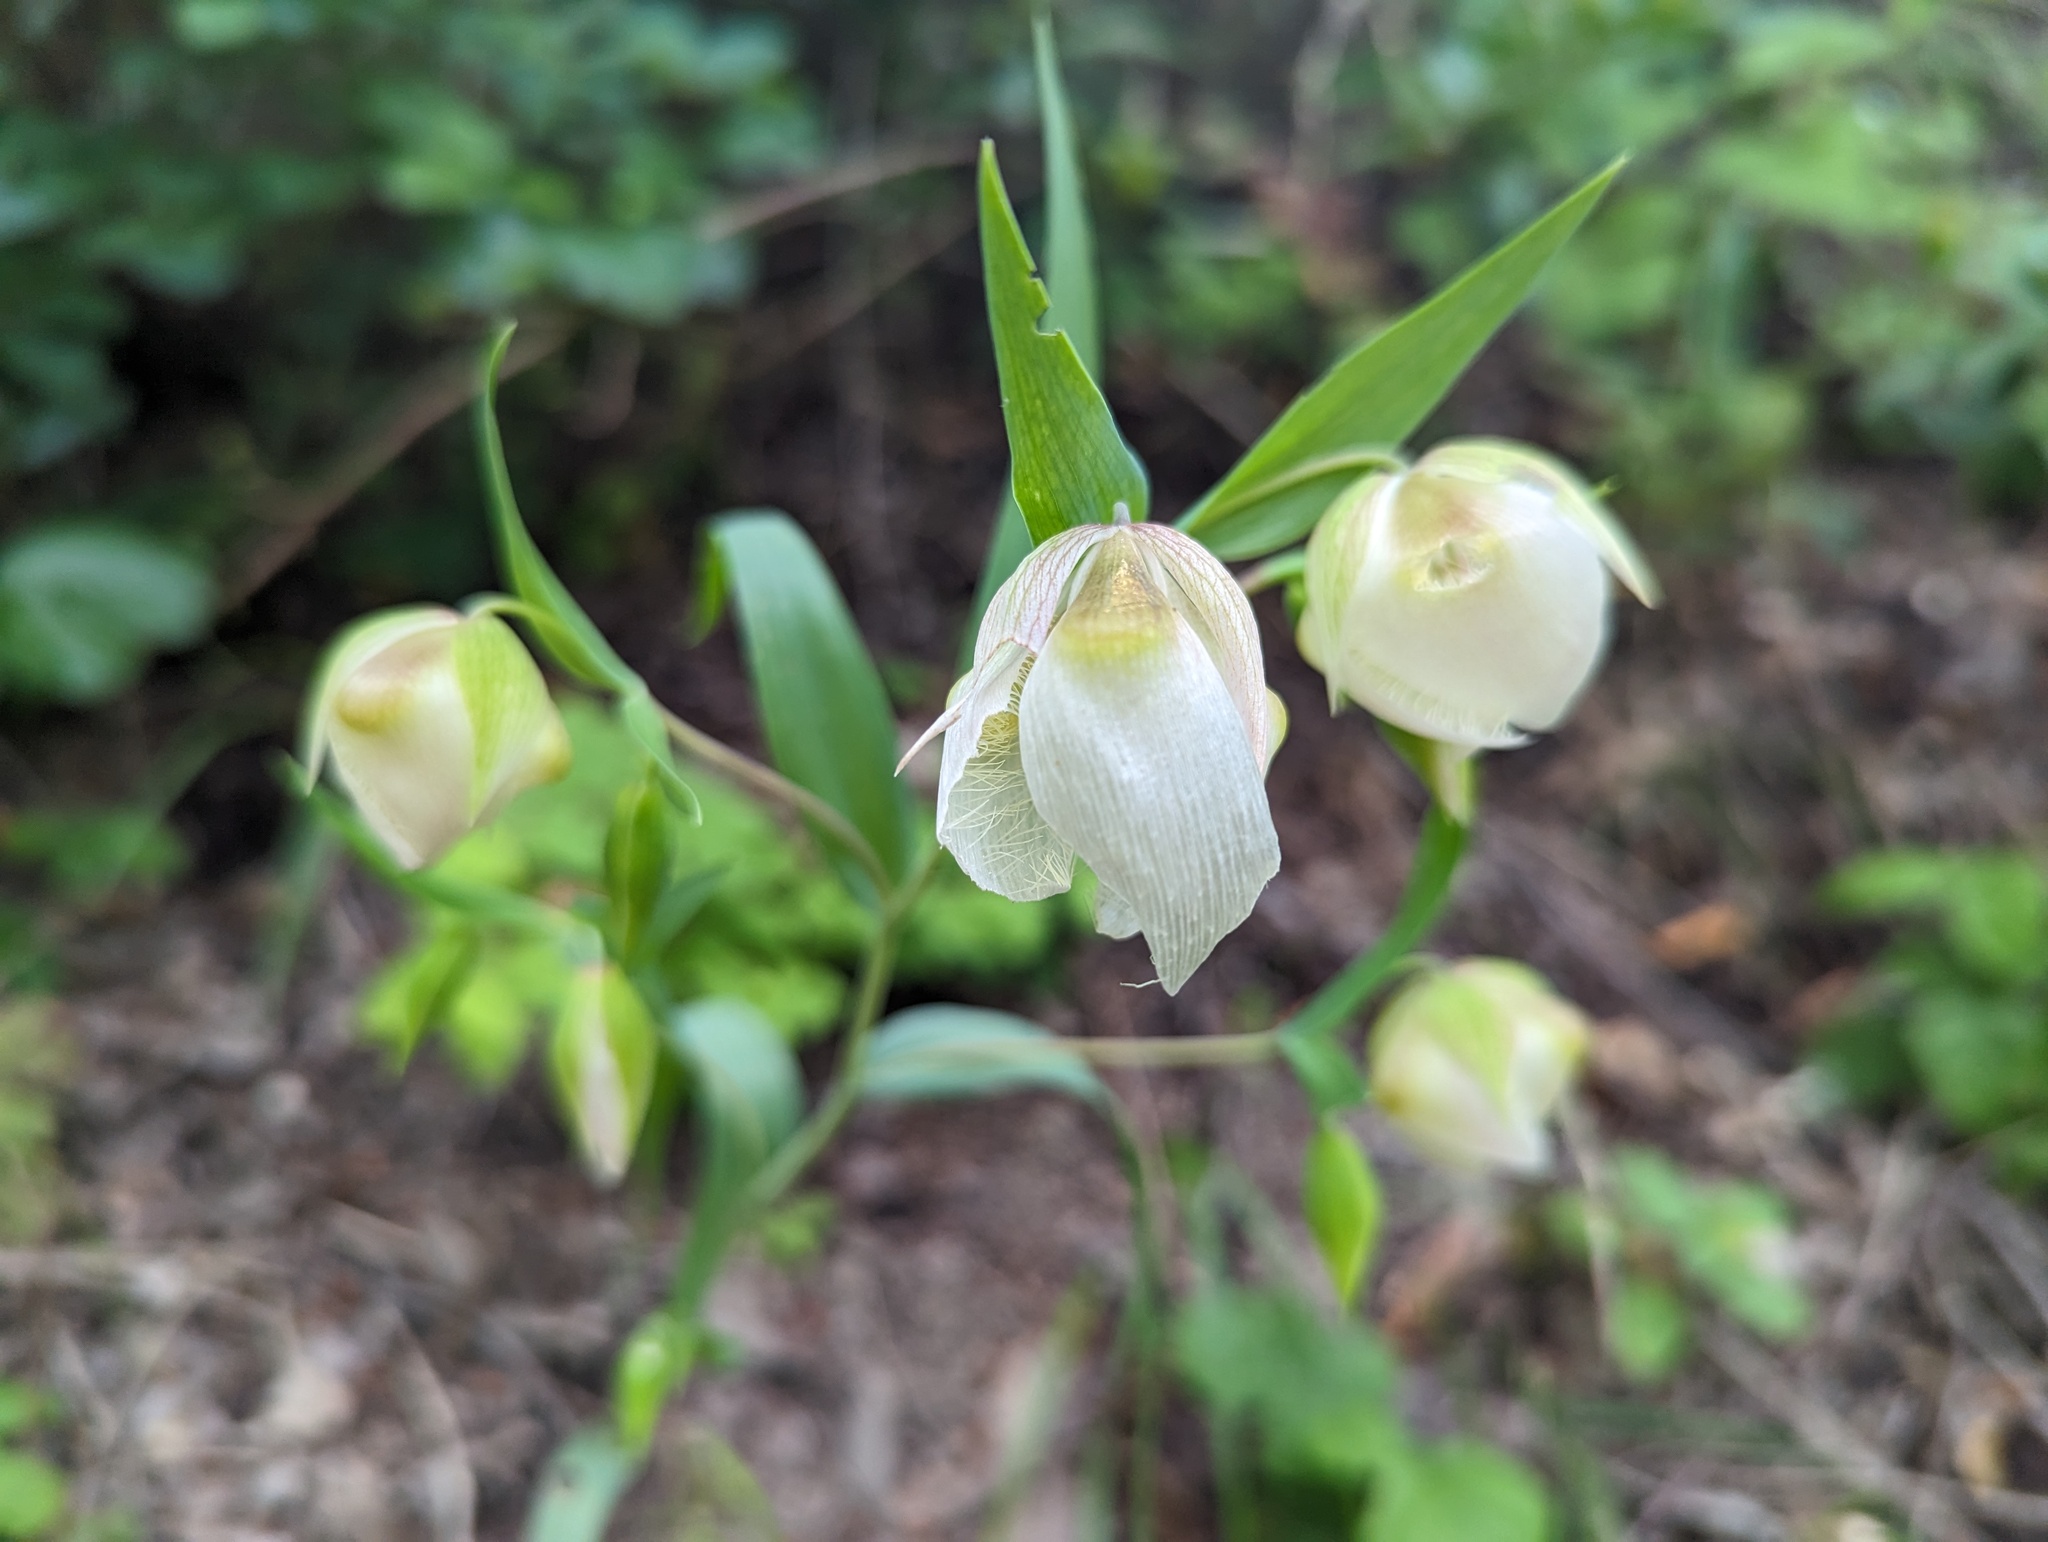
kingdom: Plantae
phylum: Tracheophyta
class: Liliopsida
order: Liliales
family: Liliaceae
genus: Calochortus
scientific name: Calochortus albus
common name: Fairy-lantern
